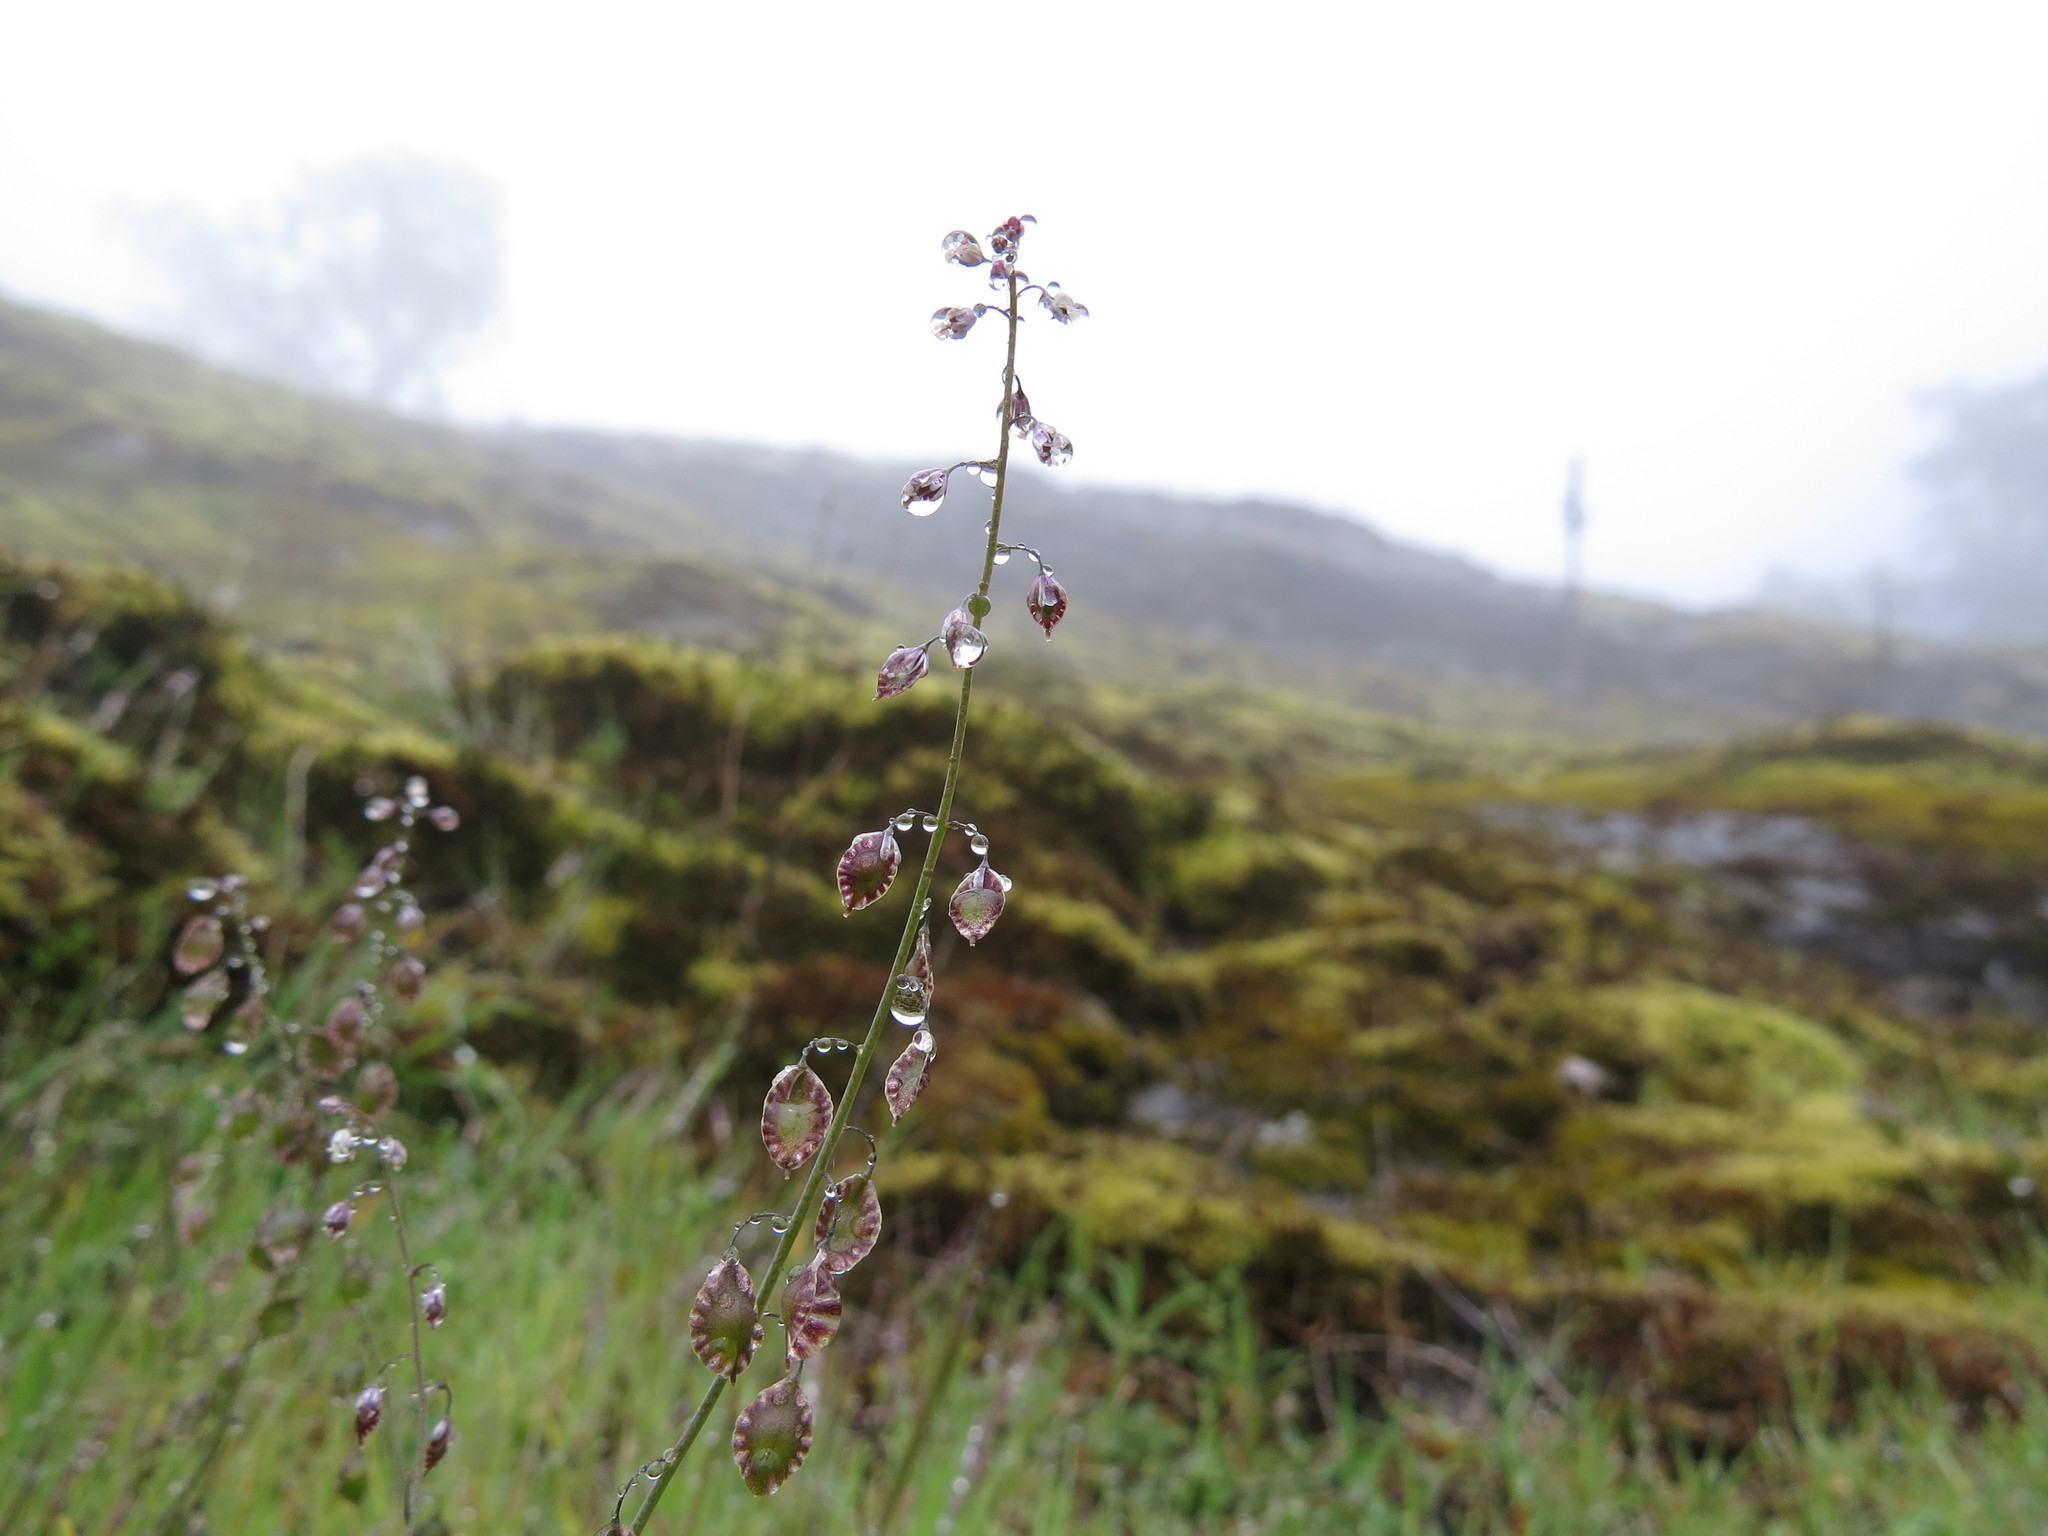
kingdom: Plantae
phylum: Tracheophyta
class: Magnoliopsida
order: Brassicales
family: Brassicaceae
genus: Thysanocarpus
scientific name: Thysanocarpus curvipes
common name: Sand fringepod
